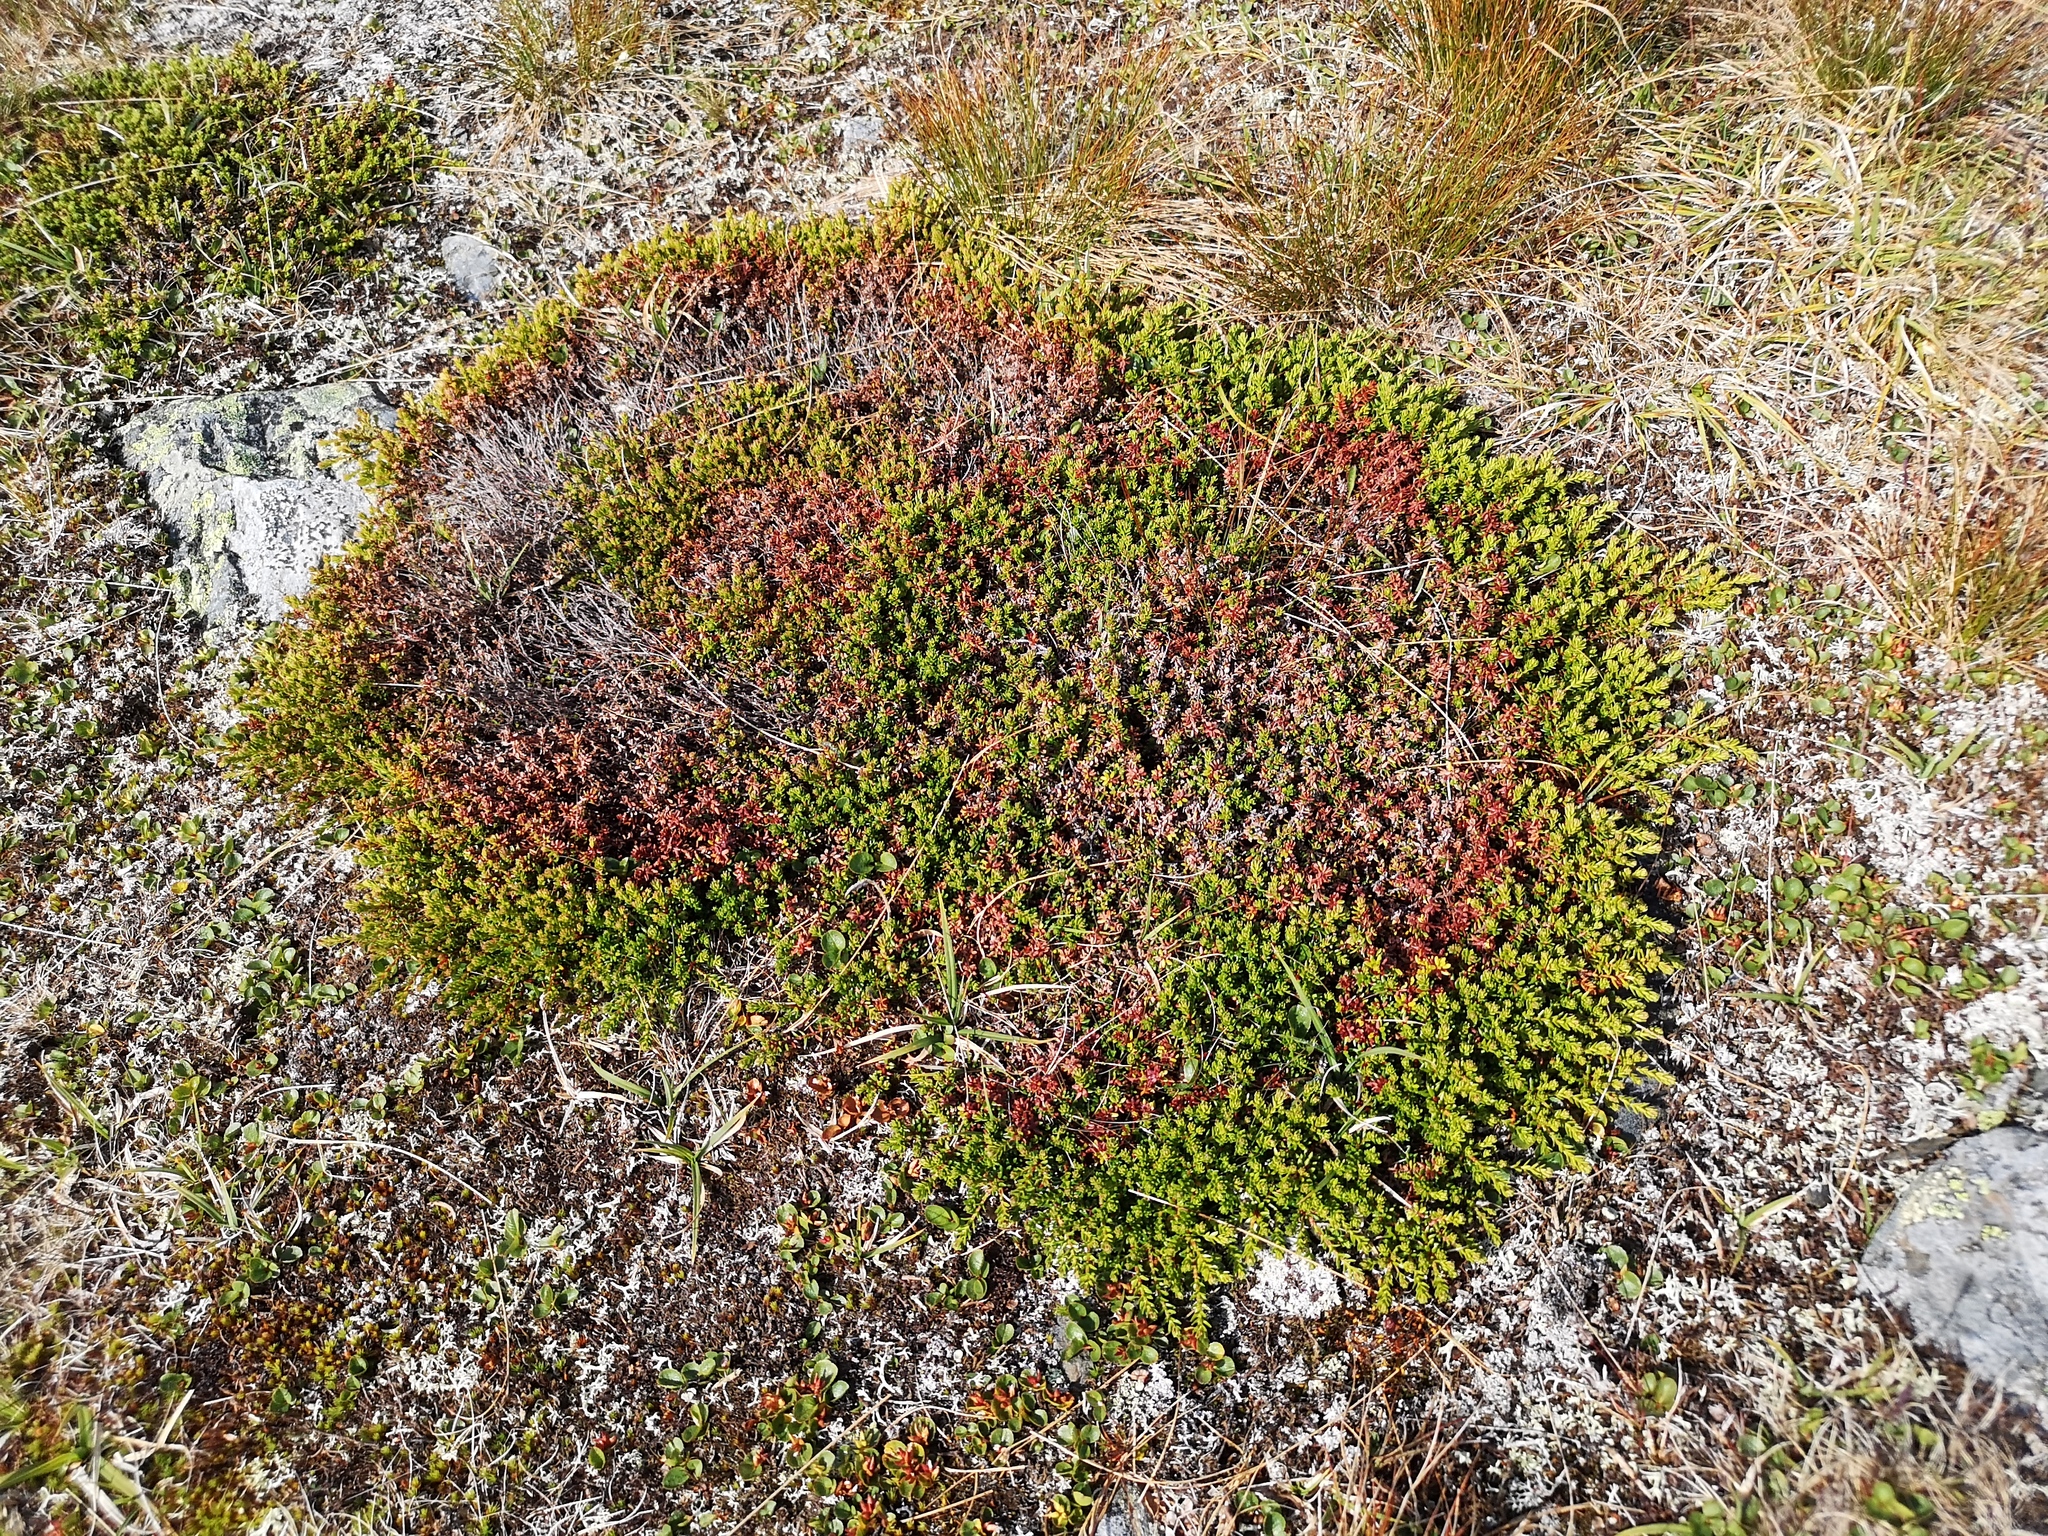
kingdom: Plantae
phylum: Tracheophyta
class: Magnoliopsida
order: Ericales
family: Ericaceae
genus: Empetrum
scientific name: Empetrum nigrum
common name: Black crowberry
